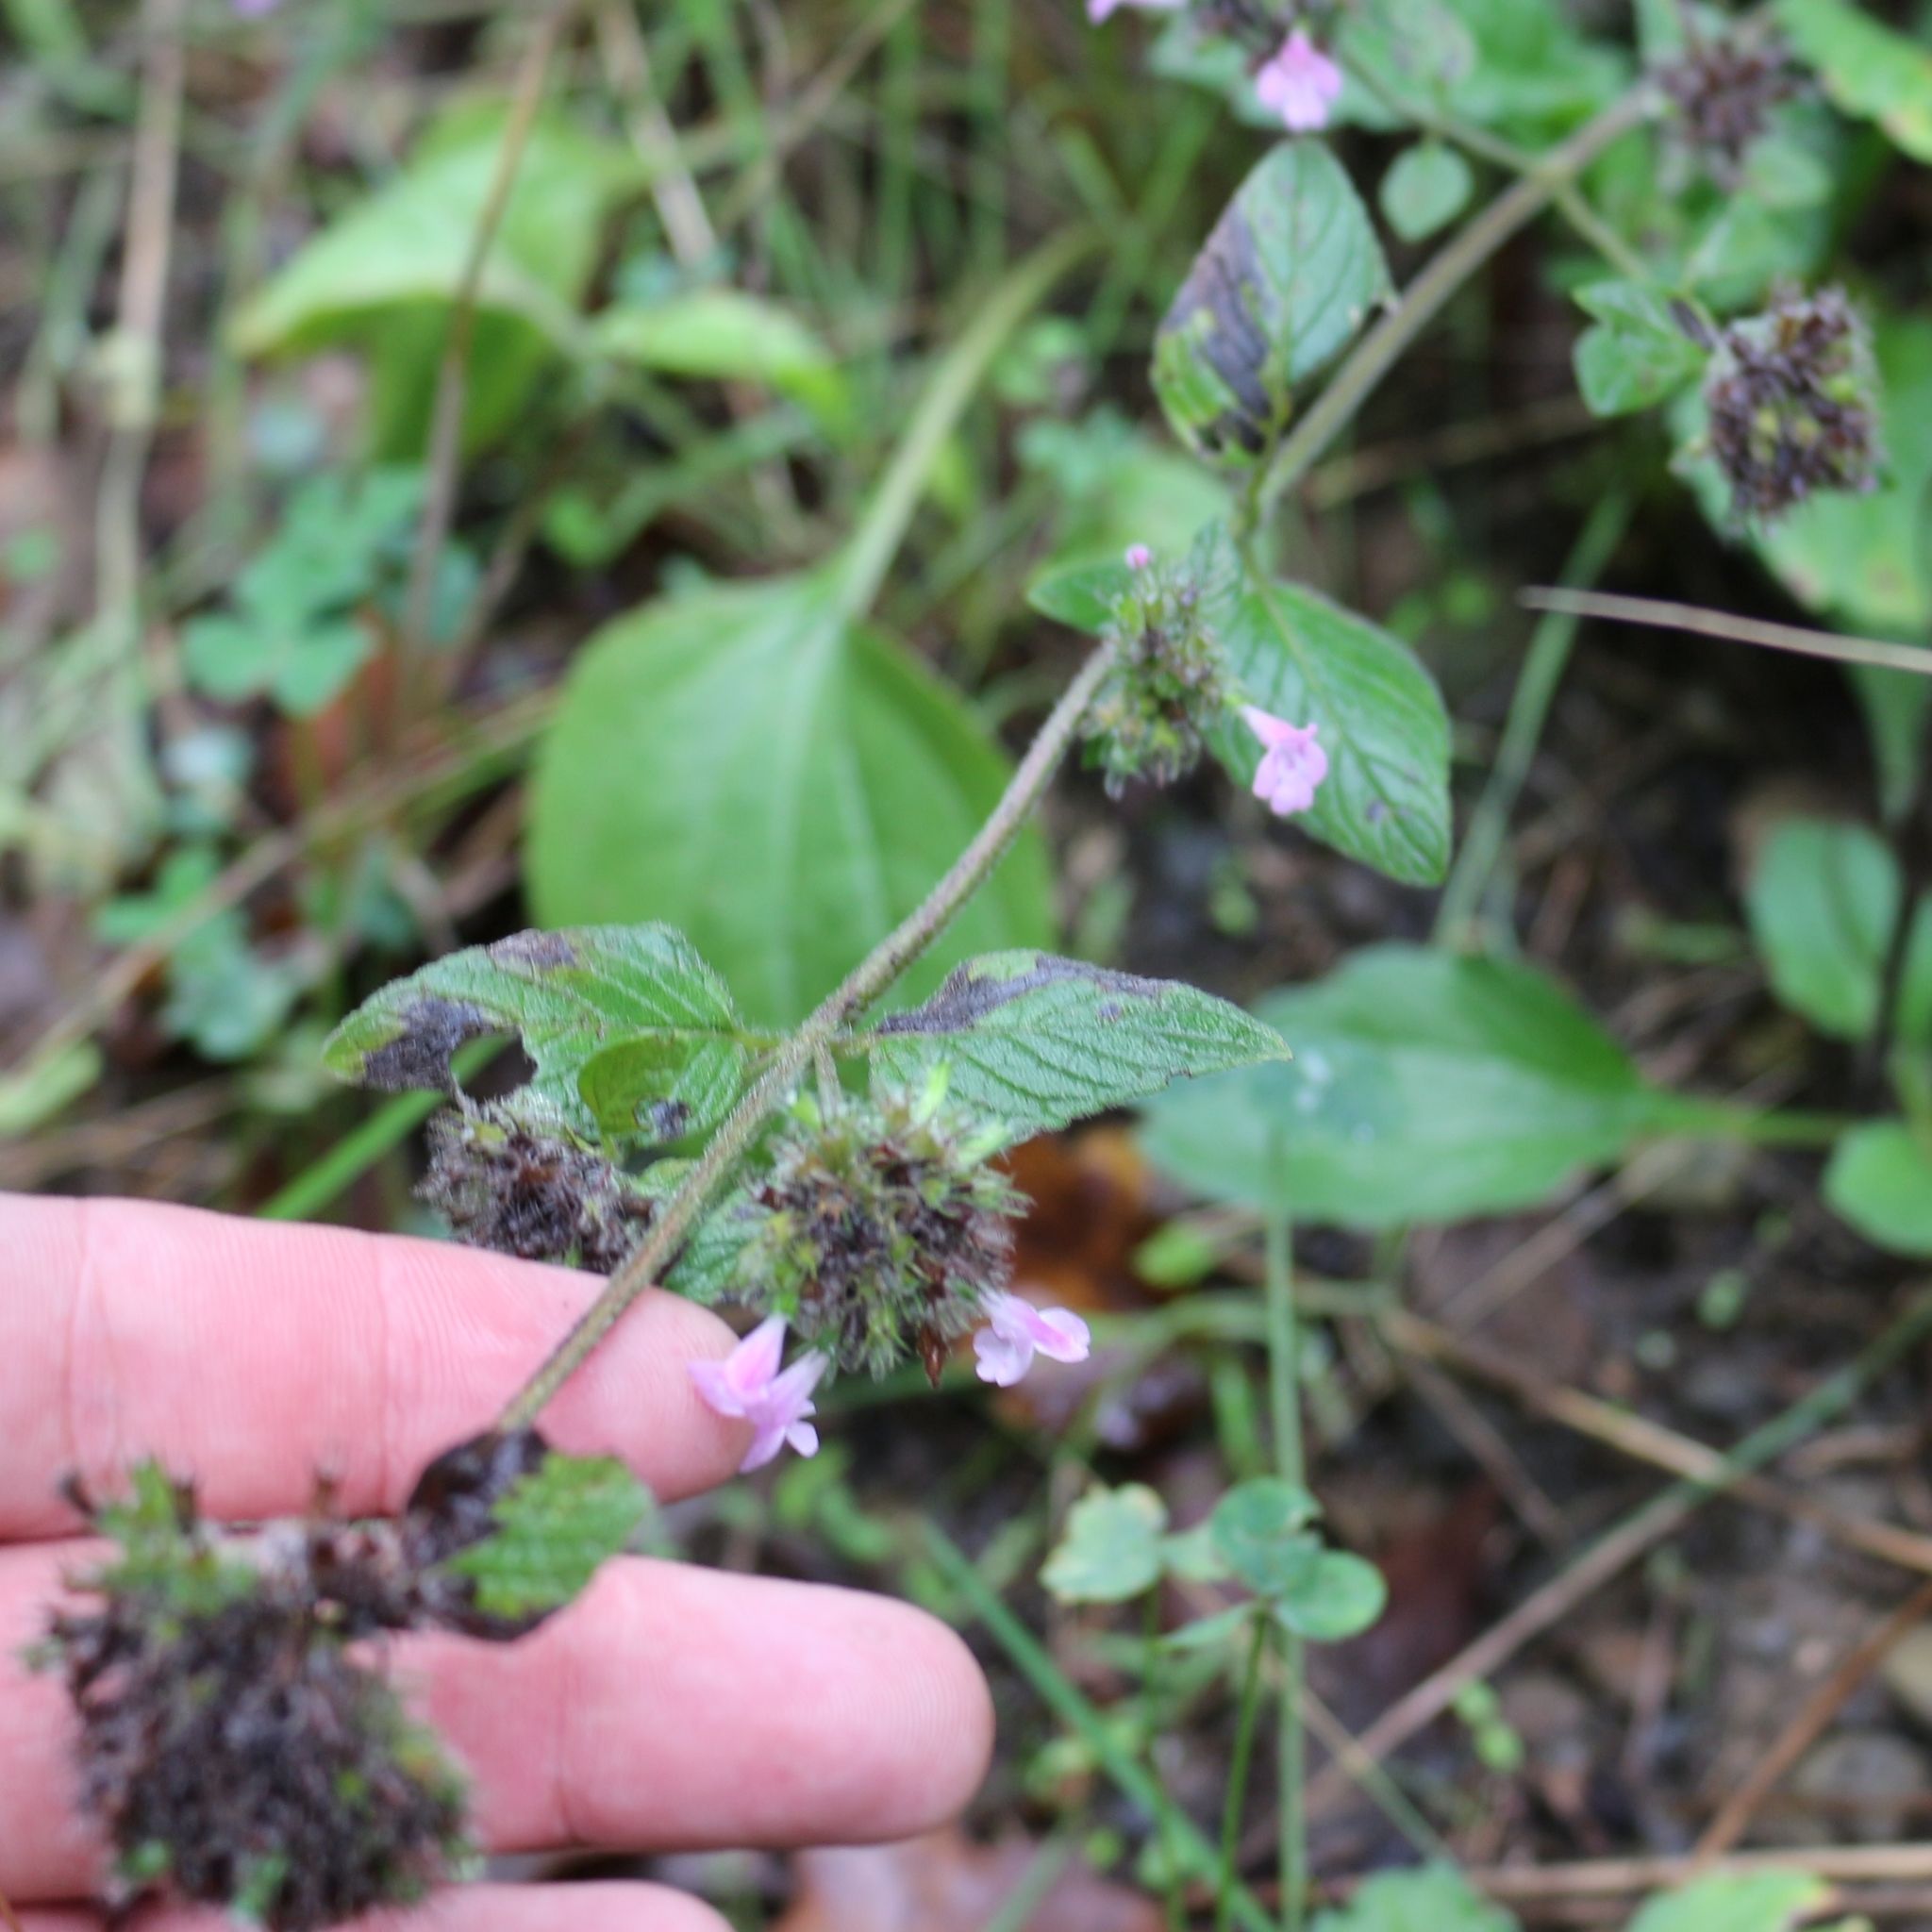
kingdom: Plantae
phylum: Tracheophyta
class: Magnoliopsida
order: Lamiales
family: Lamiaceae
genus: Clinopodium
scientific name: Clinopodium caucasicum
